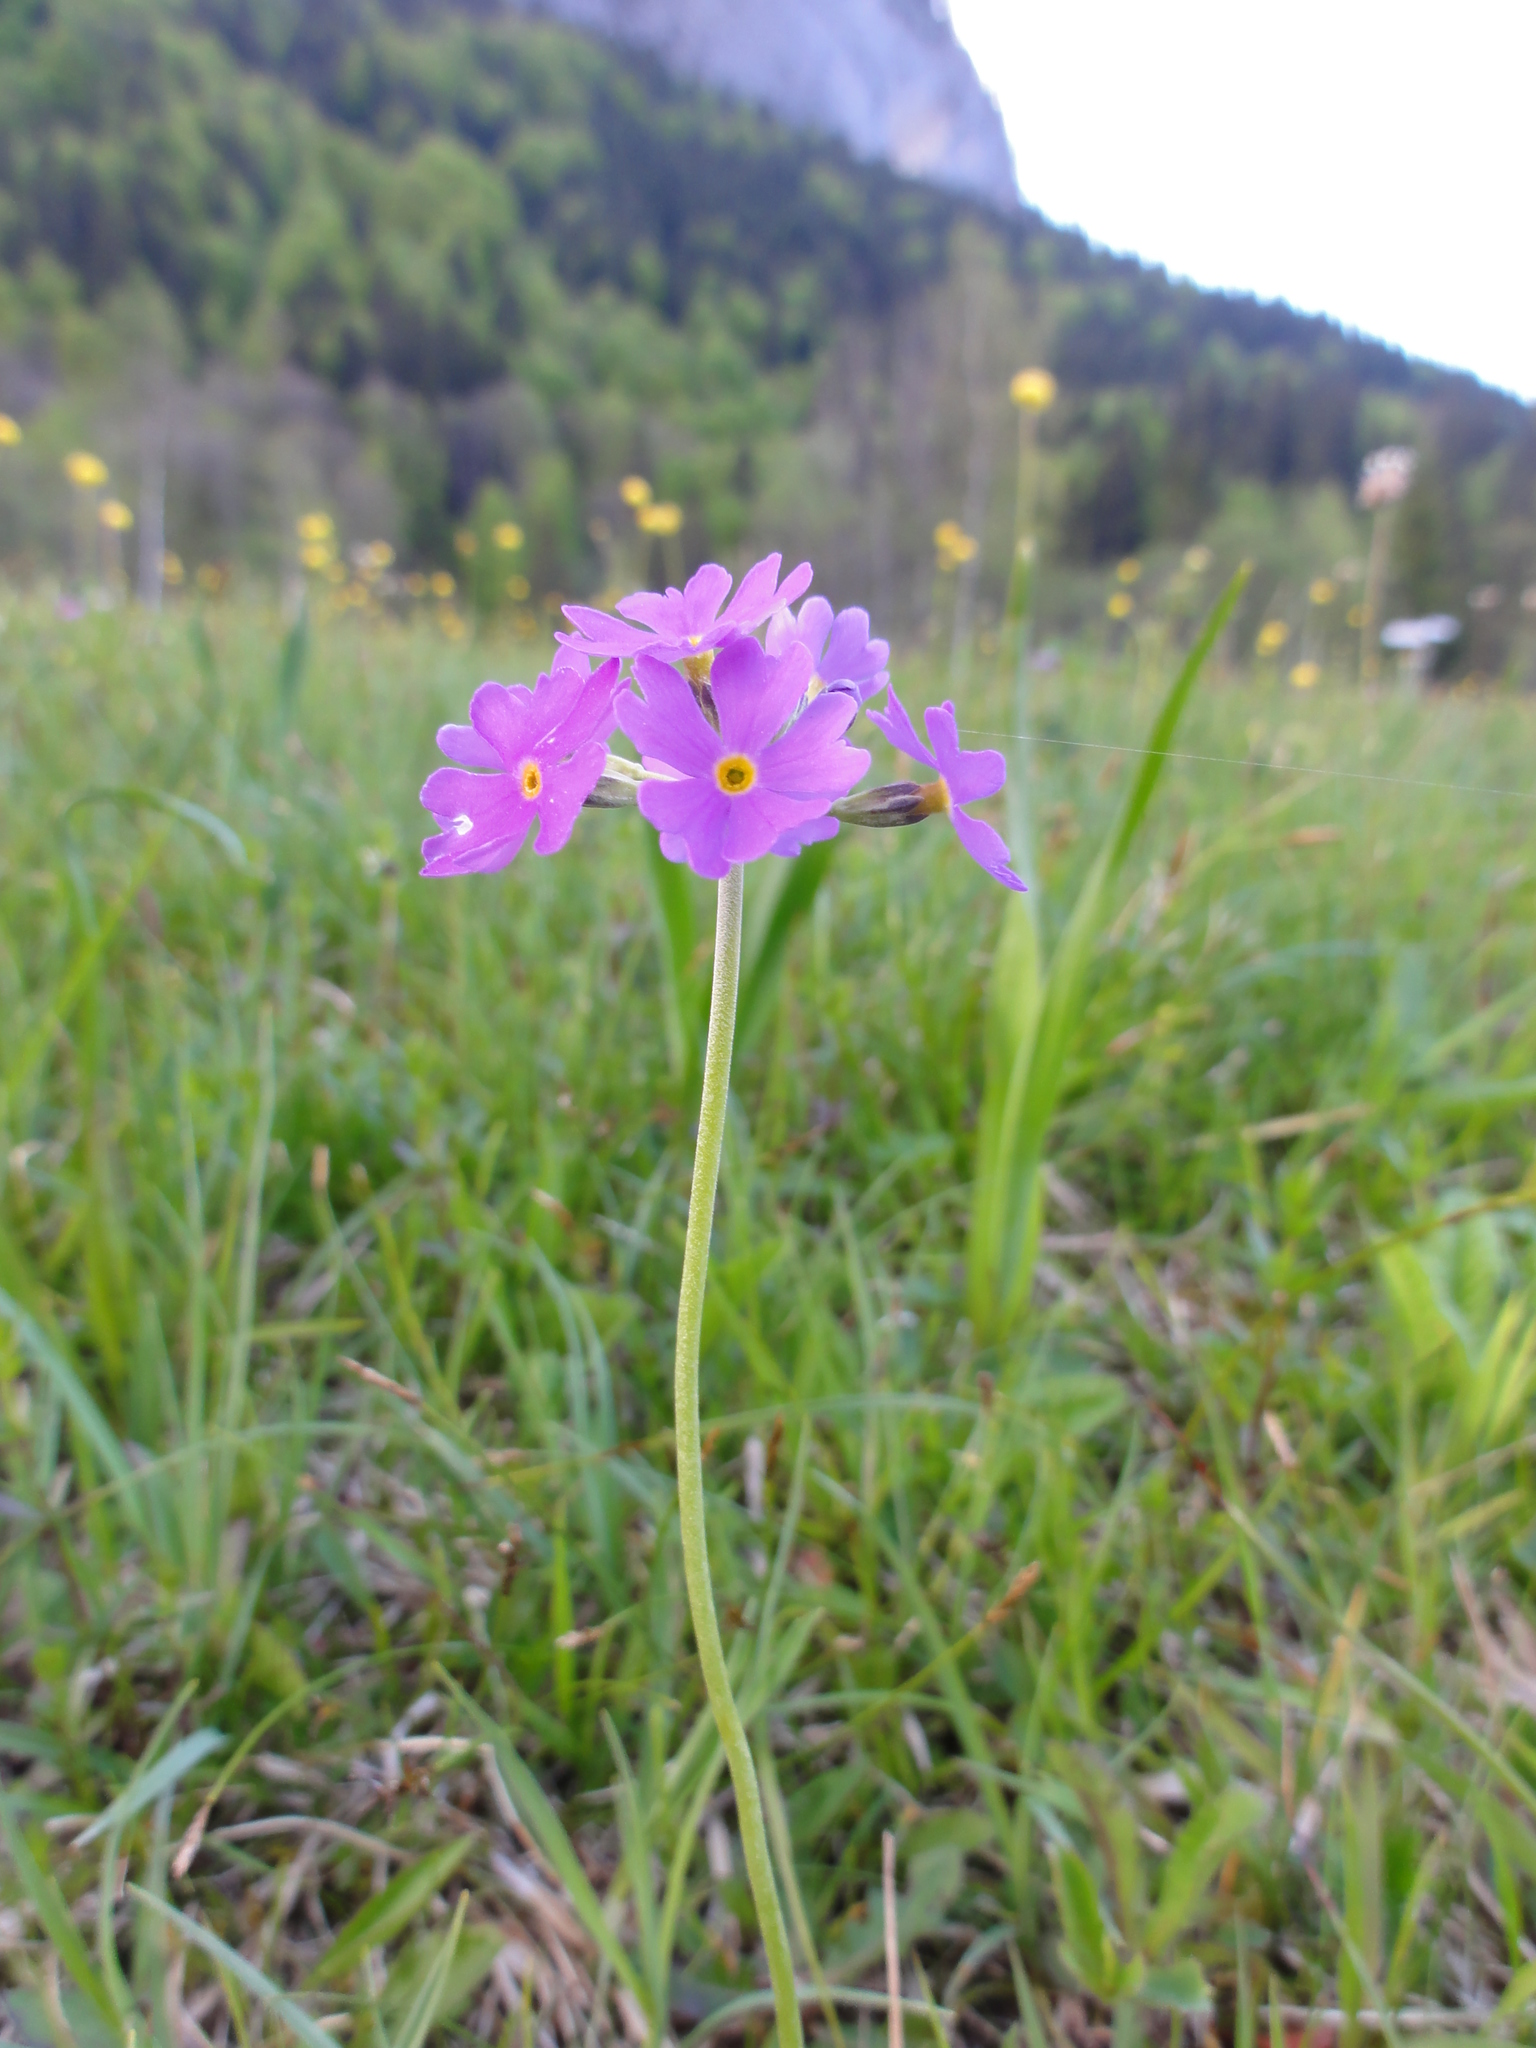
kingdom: Plantae
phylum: Tracheophyta
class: Magnoliopsida
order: Ericales
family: Primulaceae
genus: Primula
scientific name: Primula farinosa
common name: Bird's-eye primrose
